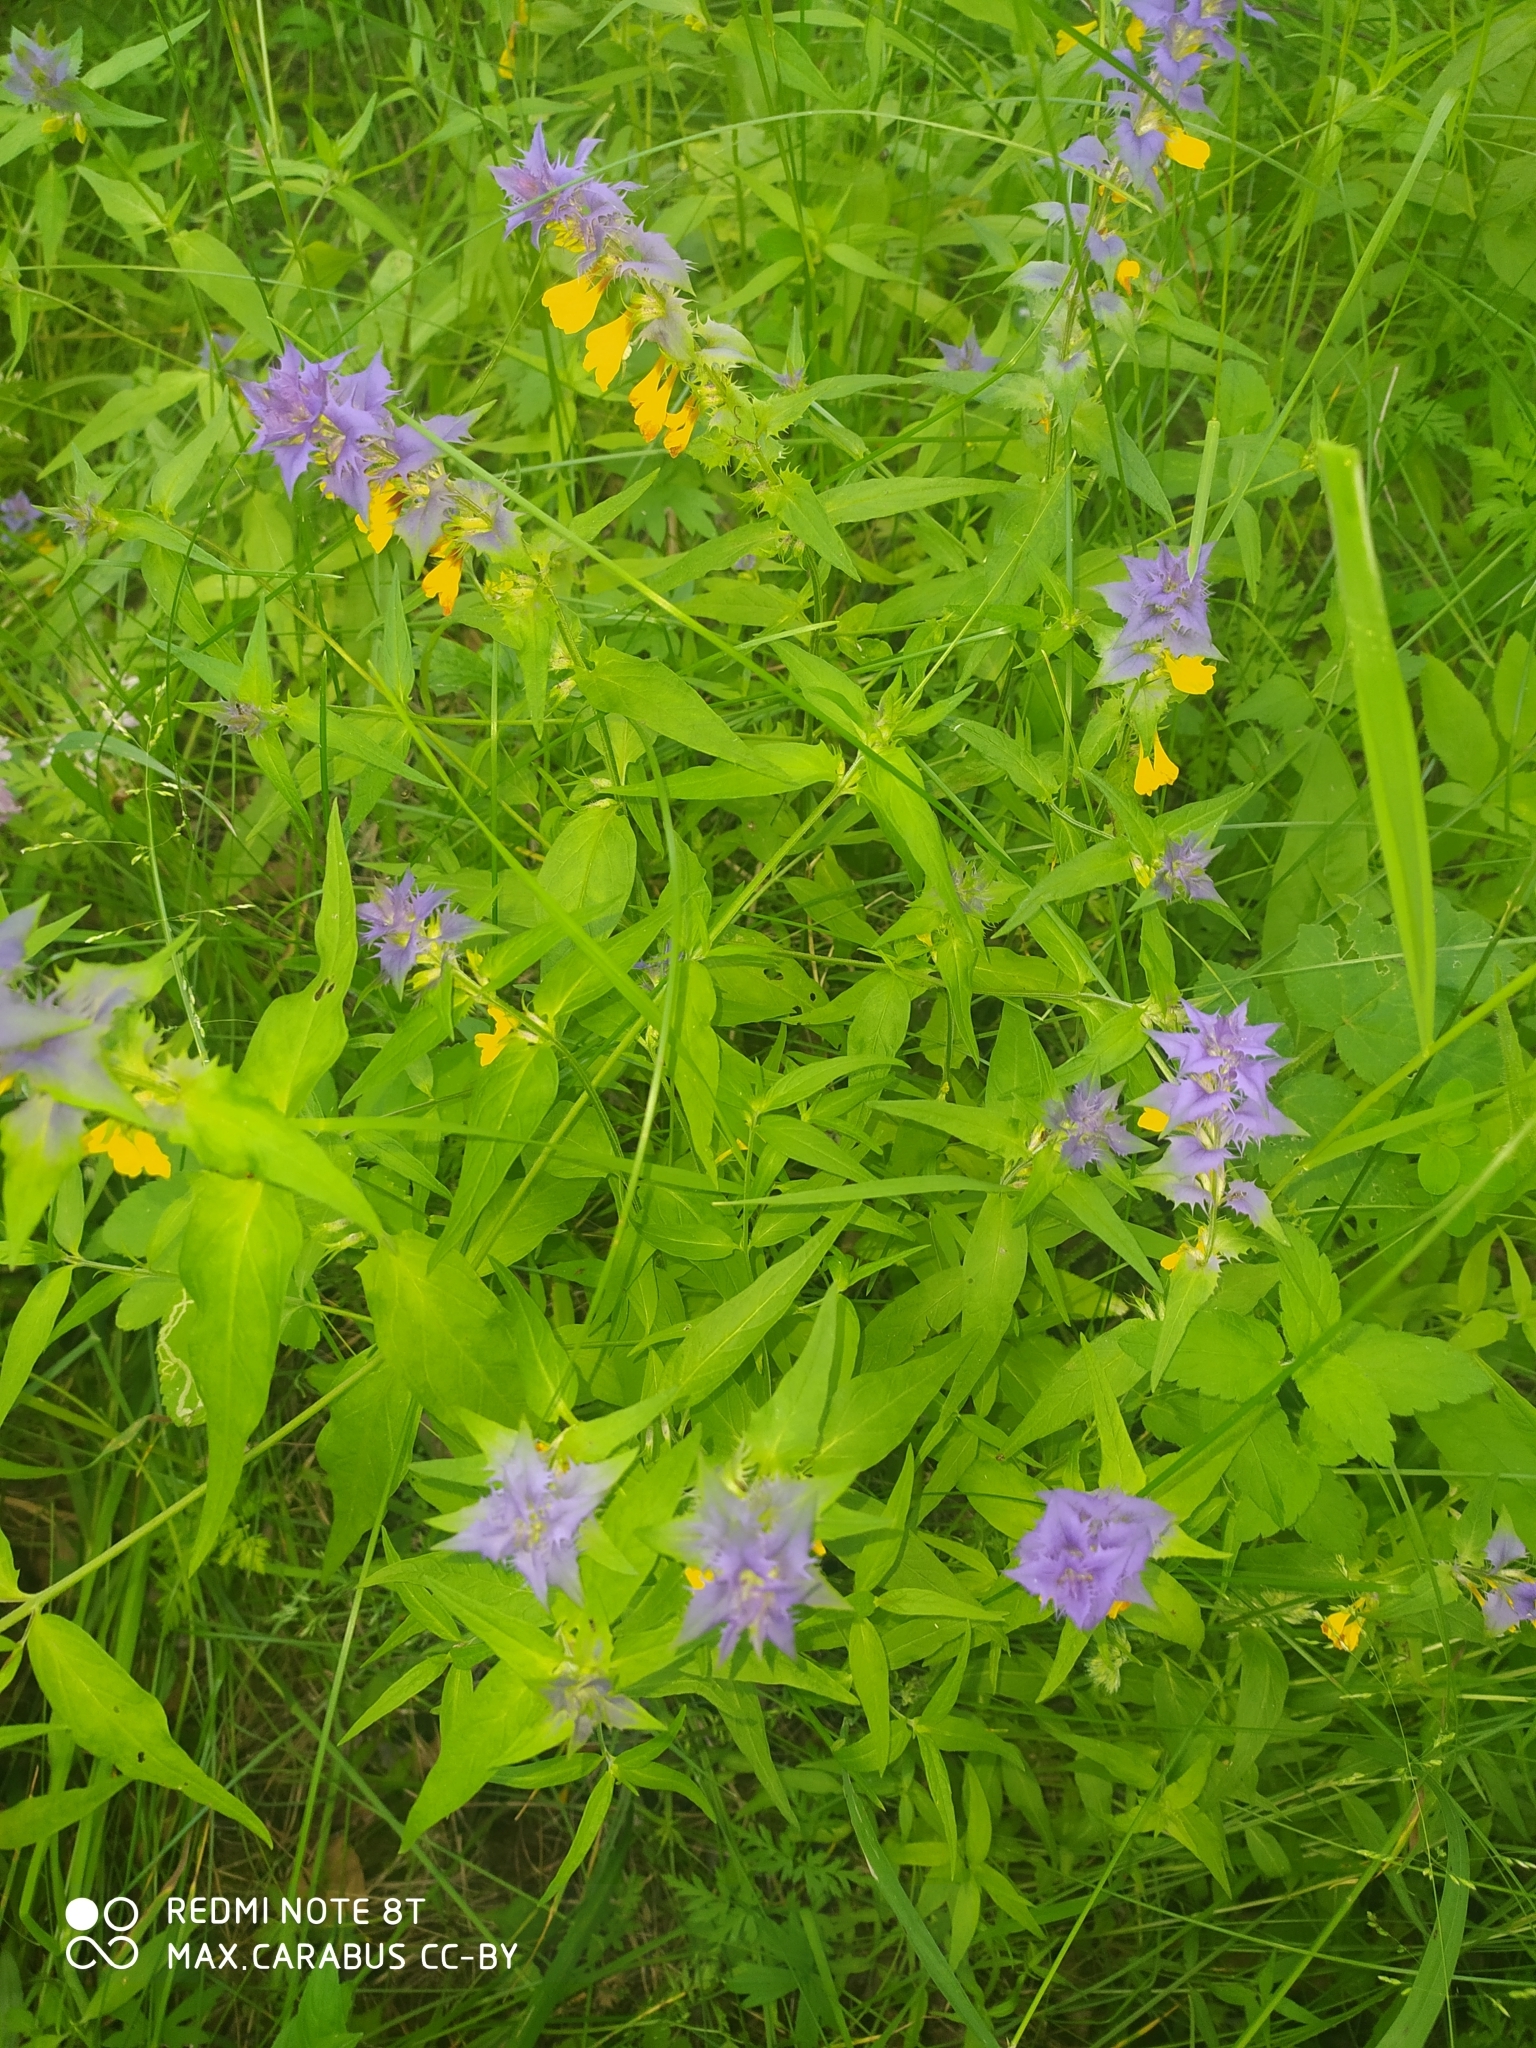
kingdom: Plantae
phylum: Tracheophyta
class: Magnoliopsida
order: Lamiales
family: Orobanchaceae
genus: Melampyrum
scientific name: Melampyrum nemorosum
